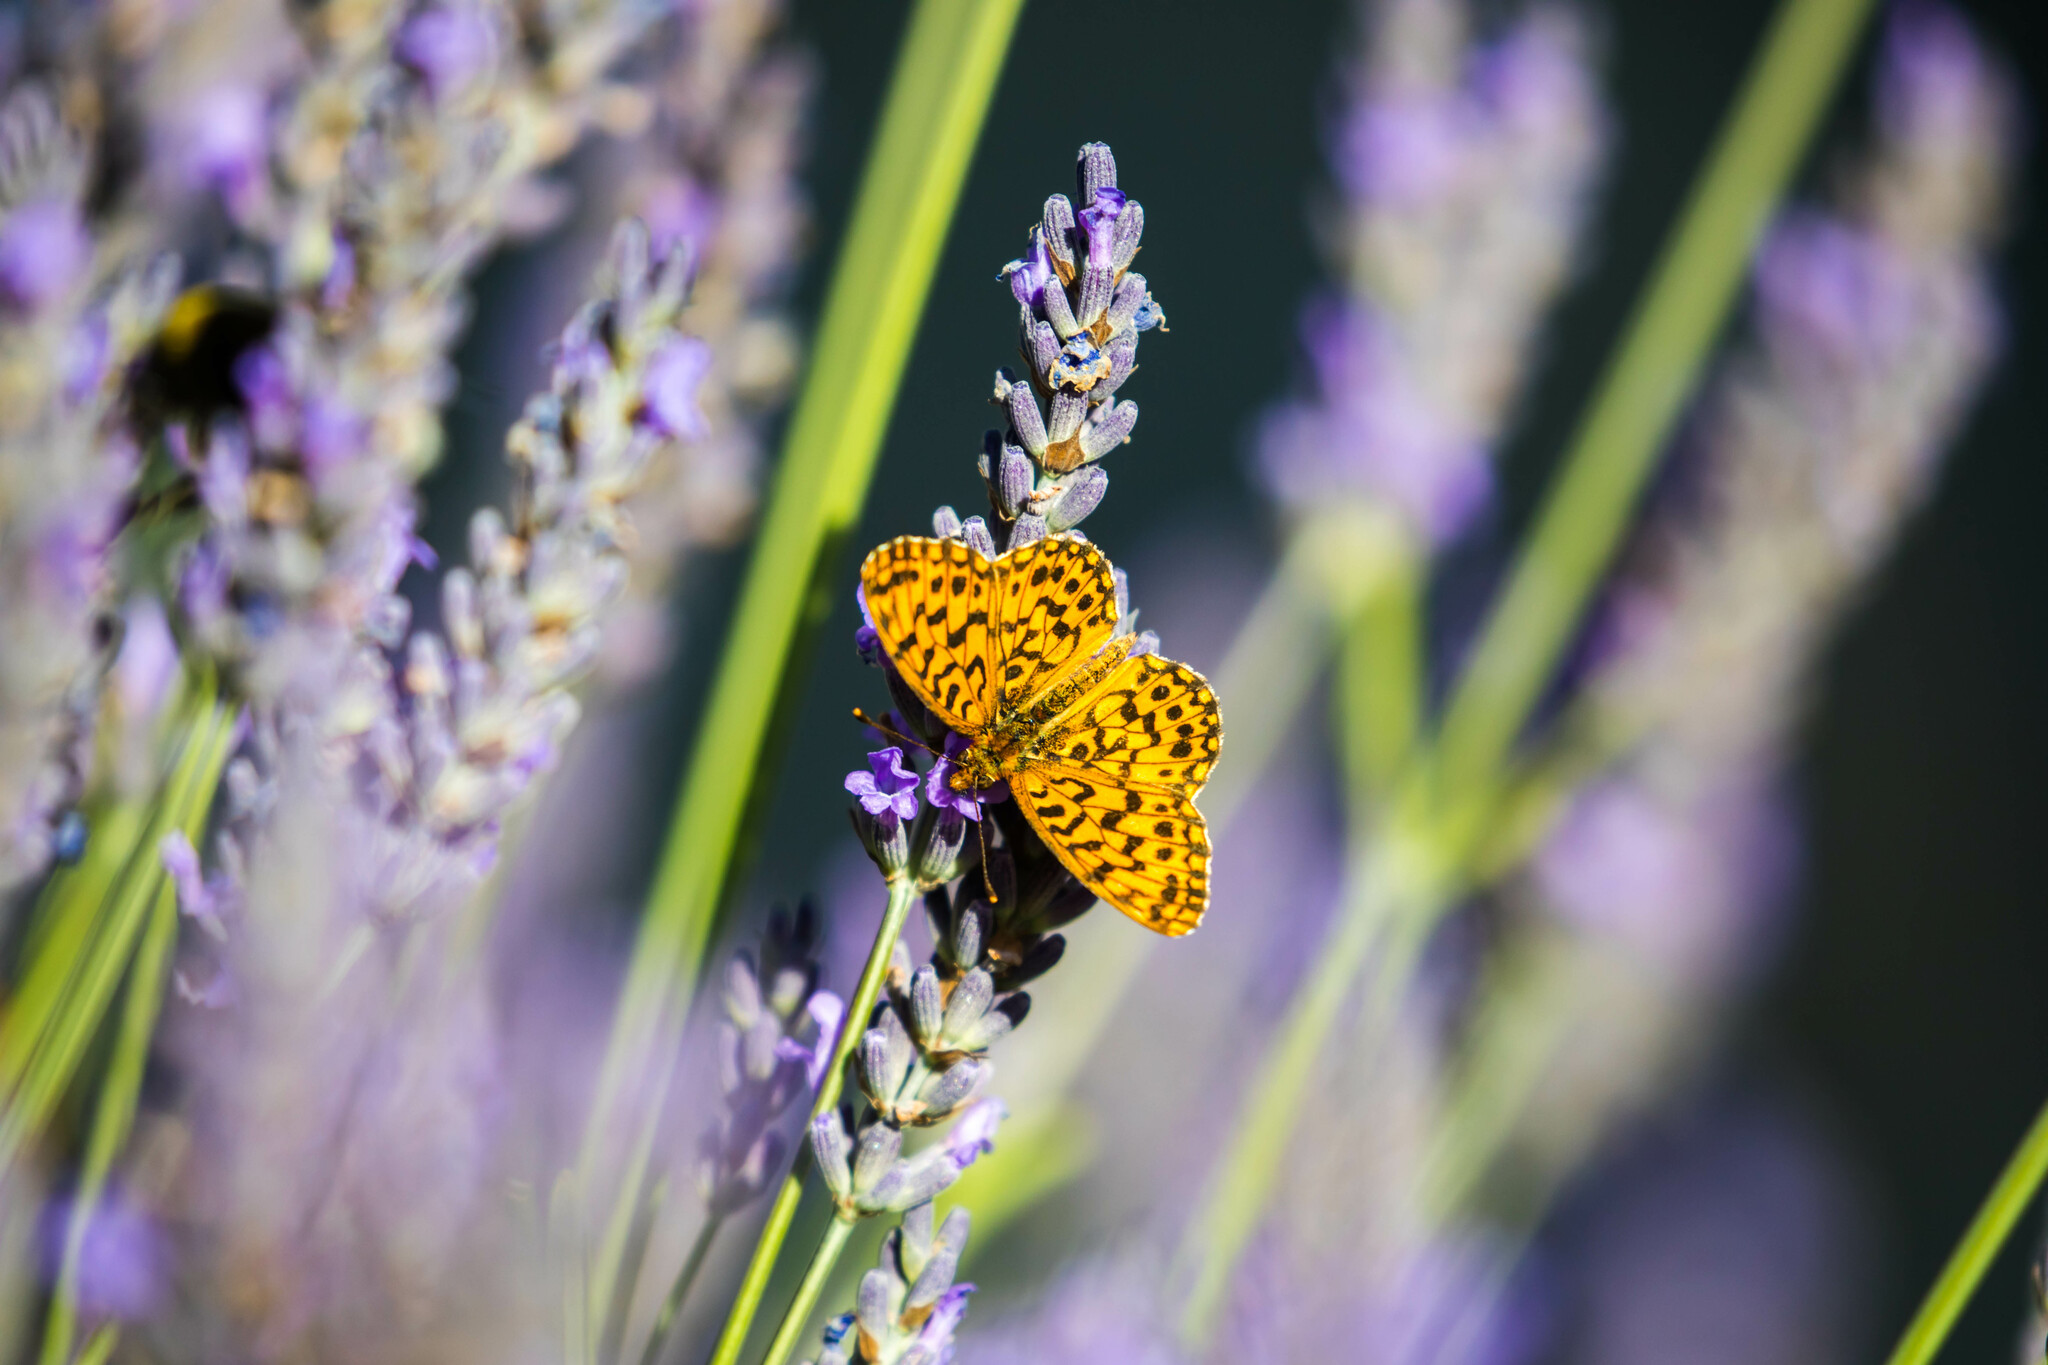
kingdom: Animalia
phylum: Arthropoda
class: Insecta
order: Lepidoptera
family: Nymphalidae
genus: Boloria
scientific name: Boloria dia
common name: Weaver's fritillary
